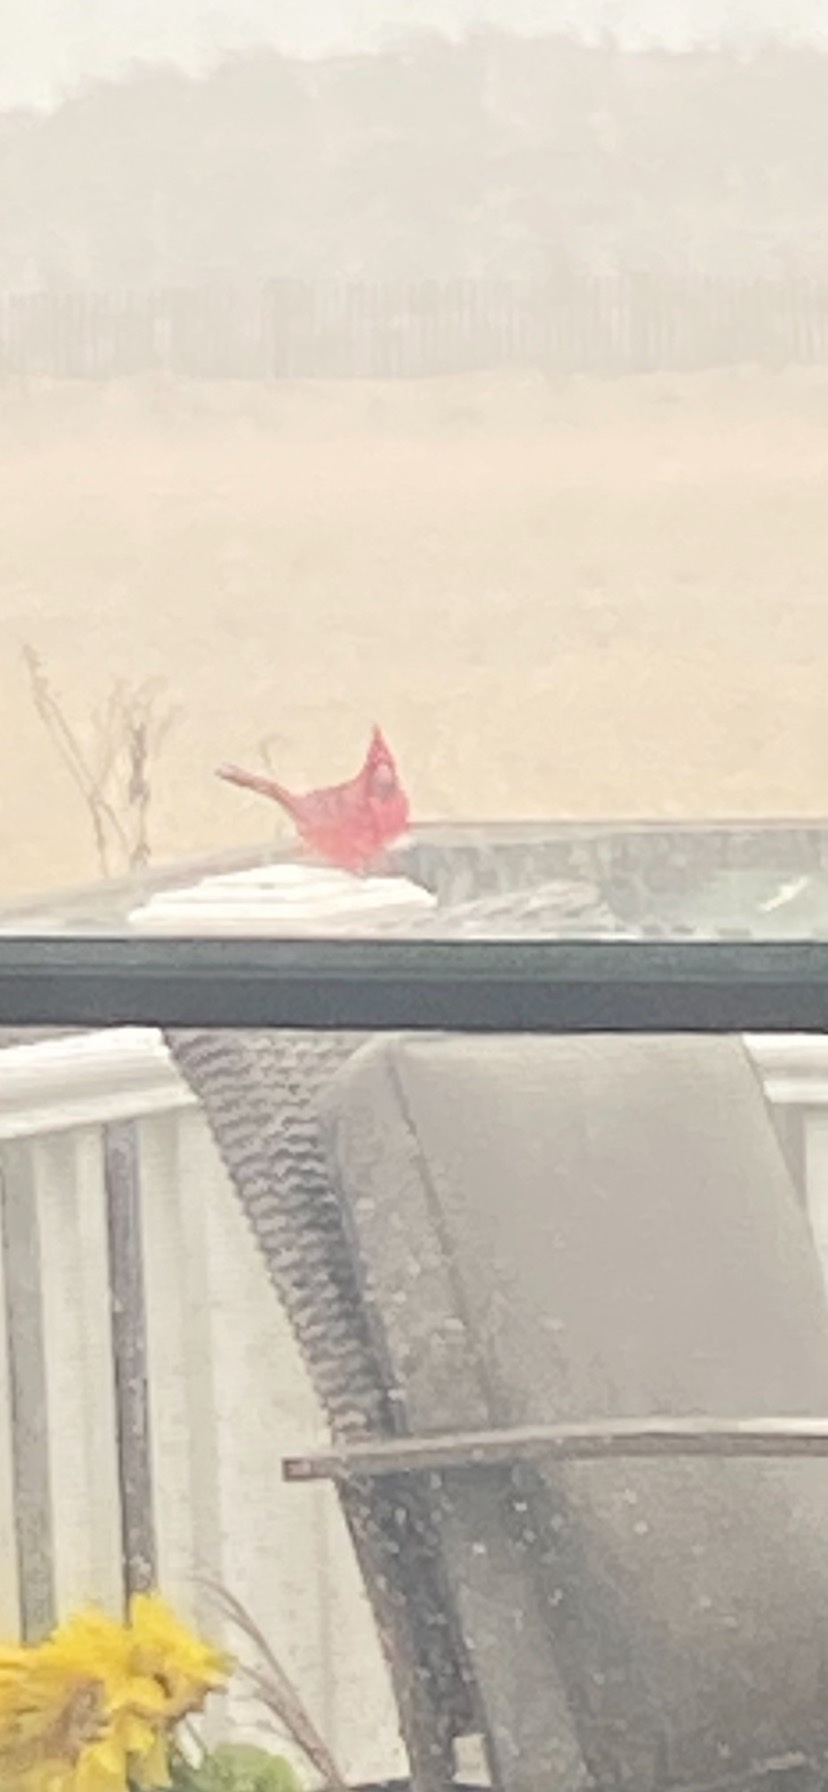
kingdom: Animalia
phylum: Chordata
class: Aves
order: Passeriformes
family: Cardinalidae
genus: Cardinalis
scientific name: Cardinalis cardinalis
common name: Northern cardinal
